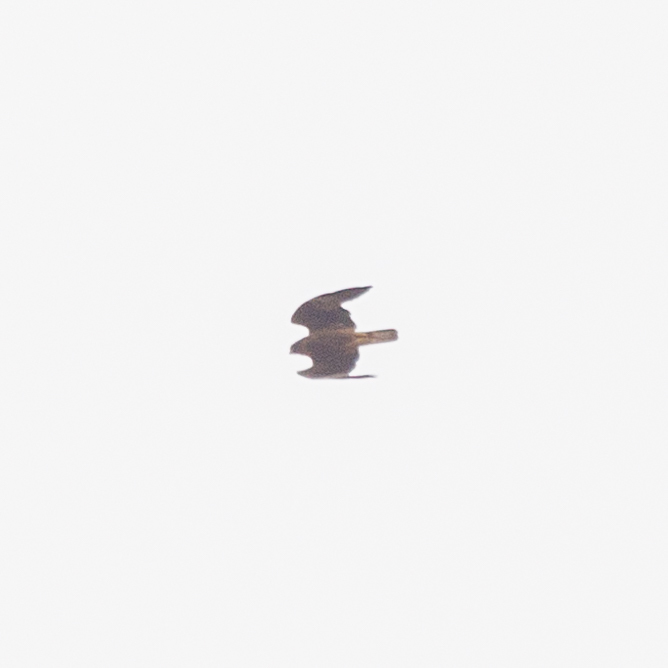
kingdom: Animalia
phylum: Chordata
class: Aves
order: Accipitriformes
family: Accipitridae
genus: Hieraaetus
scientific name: Hieraaetus pennatus
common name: Booted eagle
